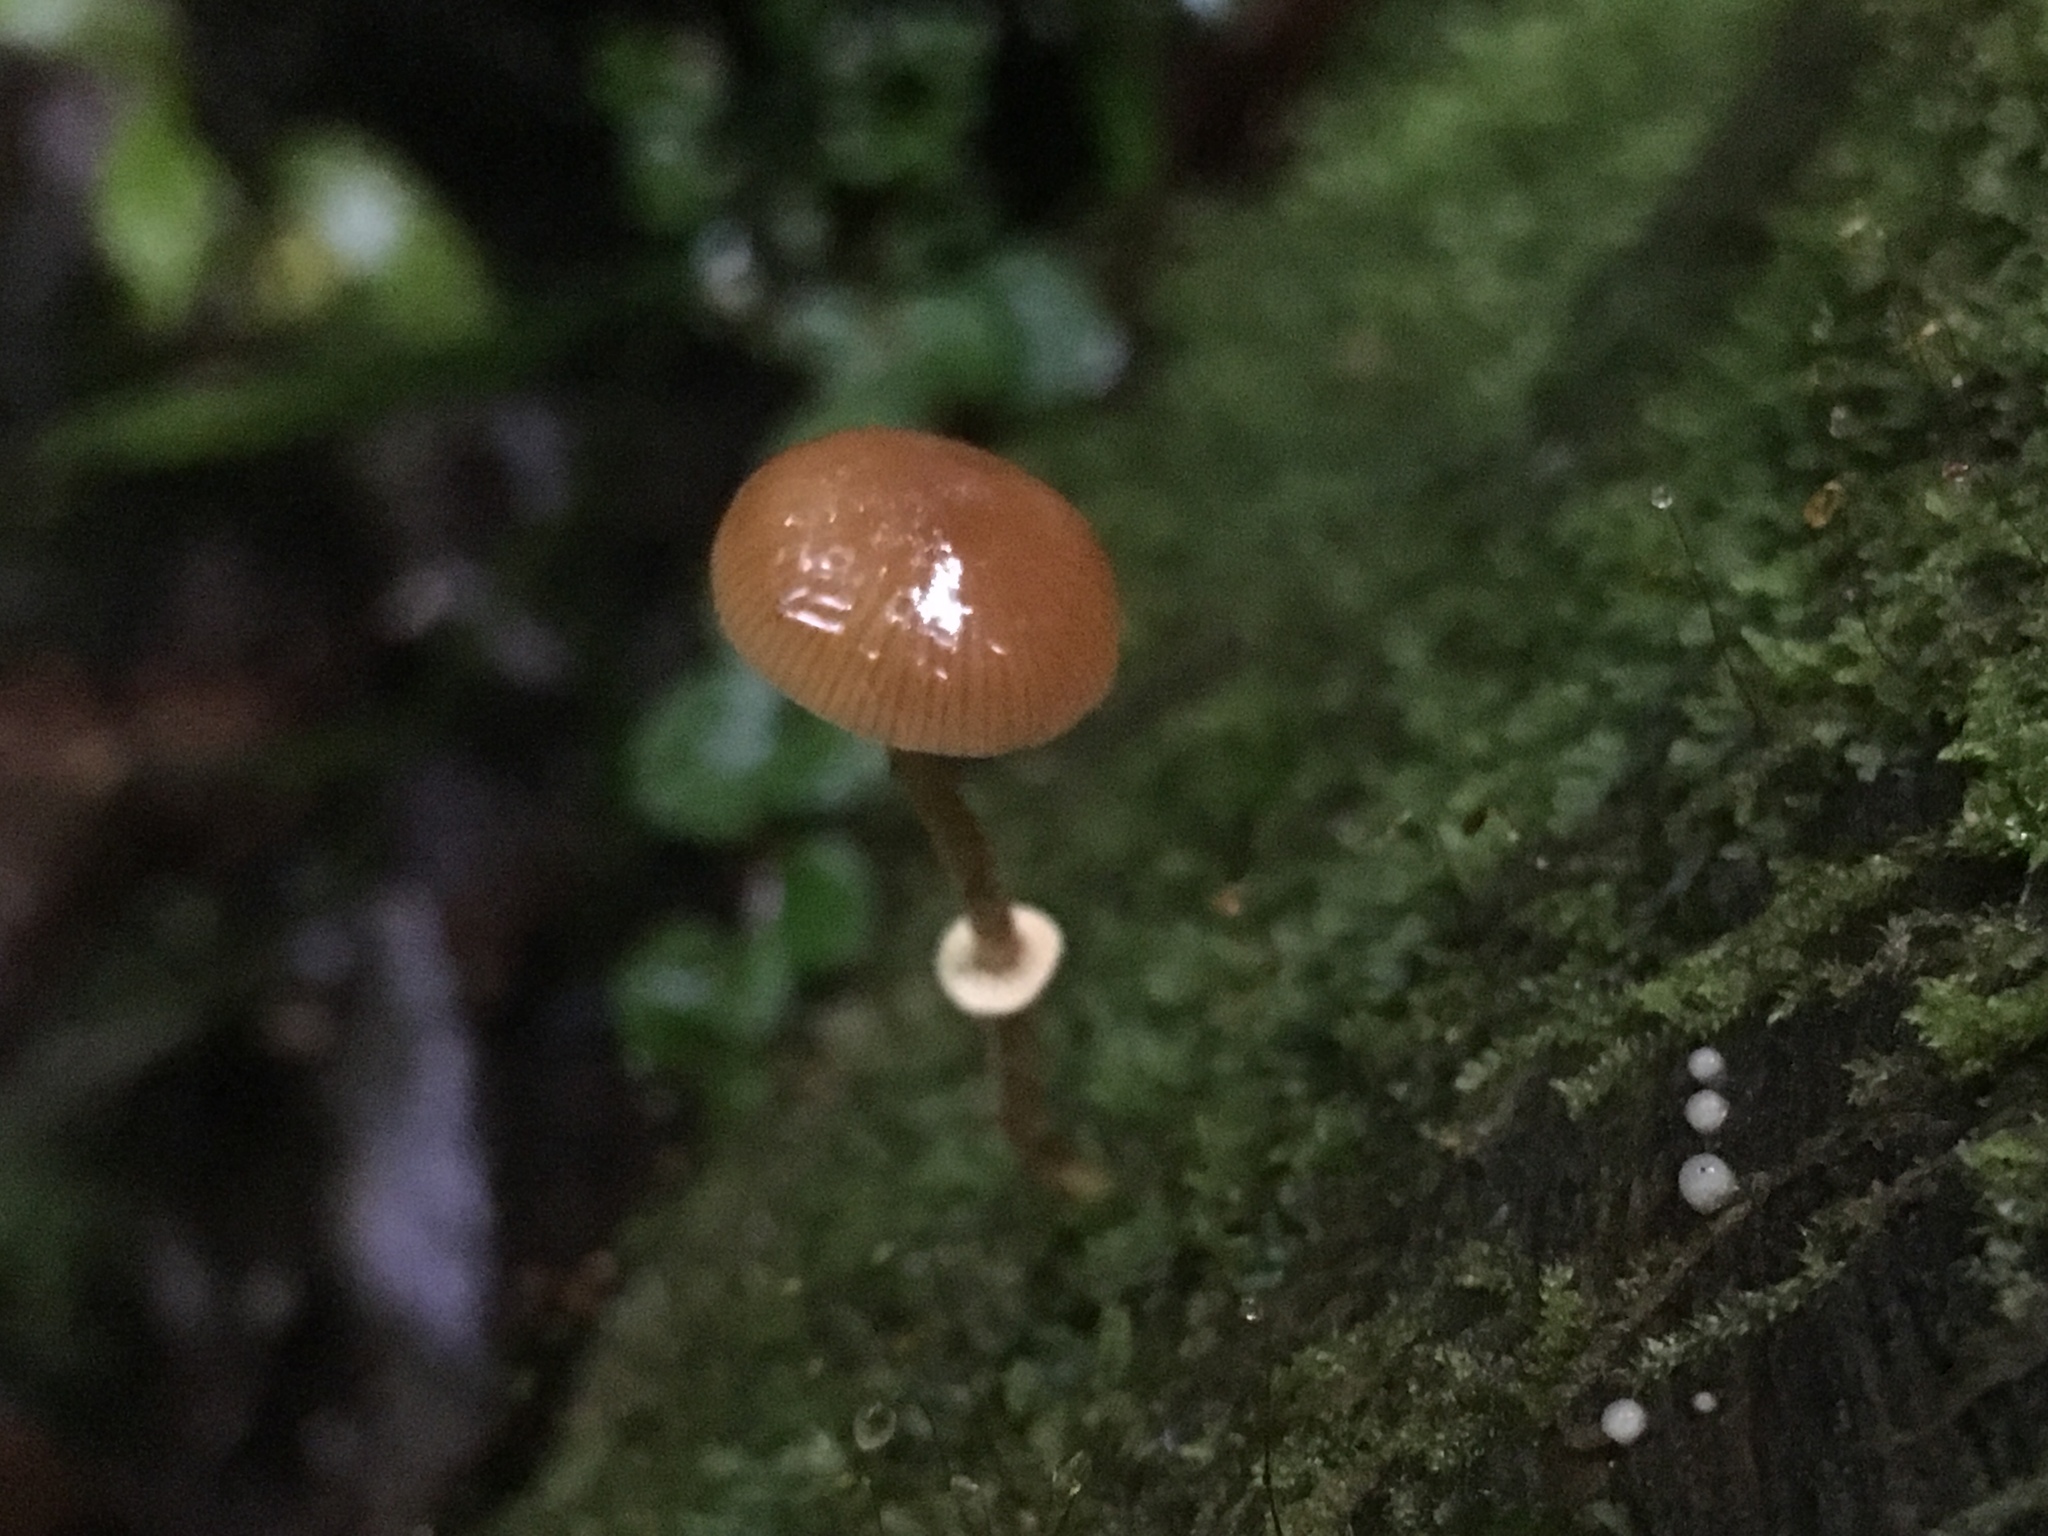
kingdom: Fungi
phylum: Basidiomycota
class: Agaricomycetes
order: Agaricales
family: Bolbitiaceae
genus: Pholiotina
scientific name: Pholiotina gracilenta
